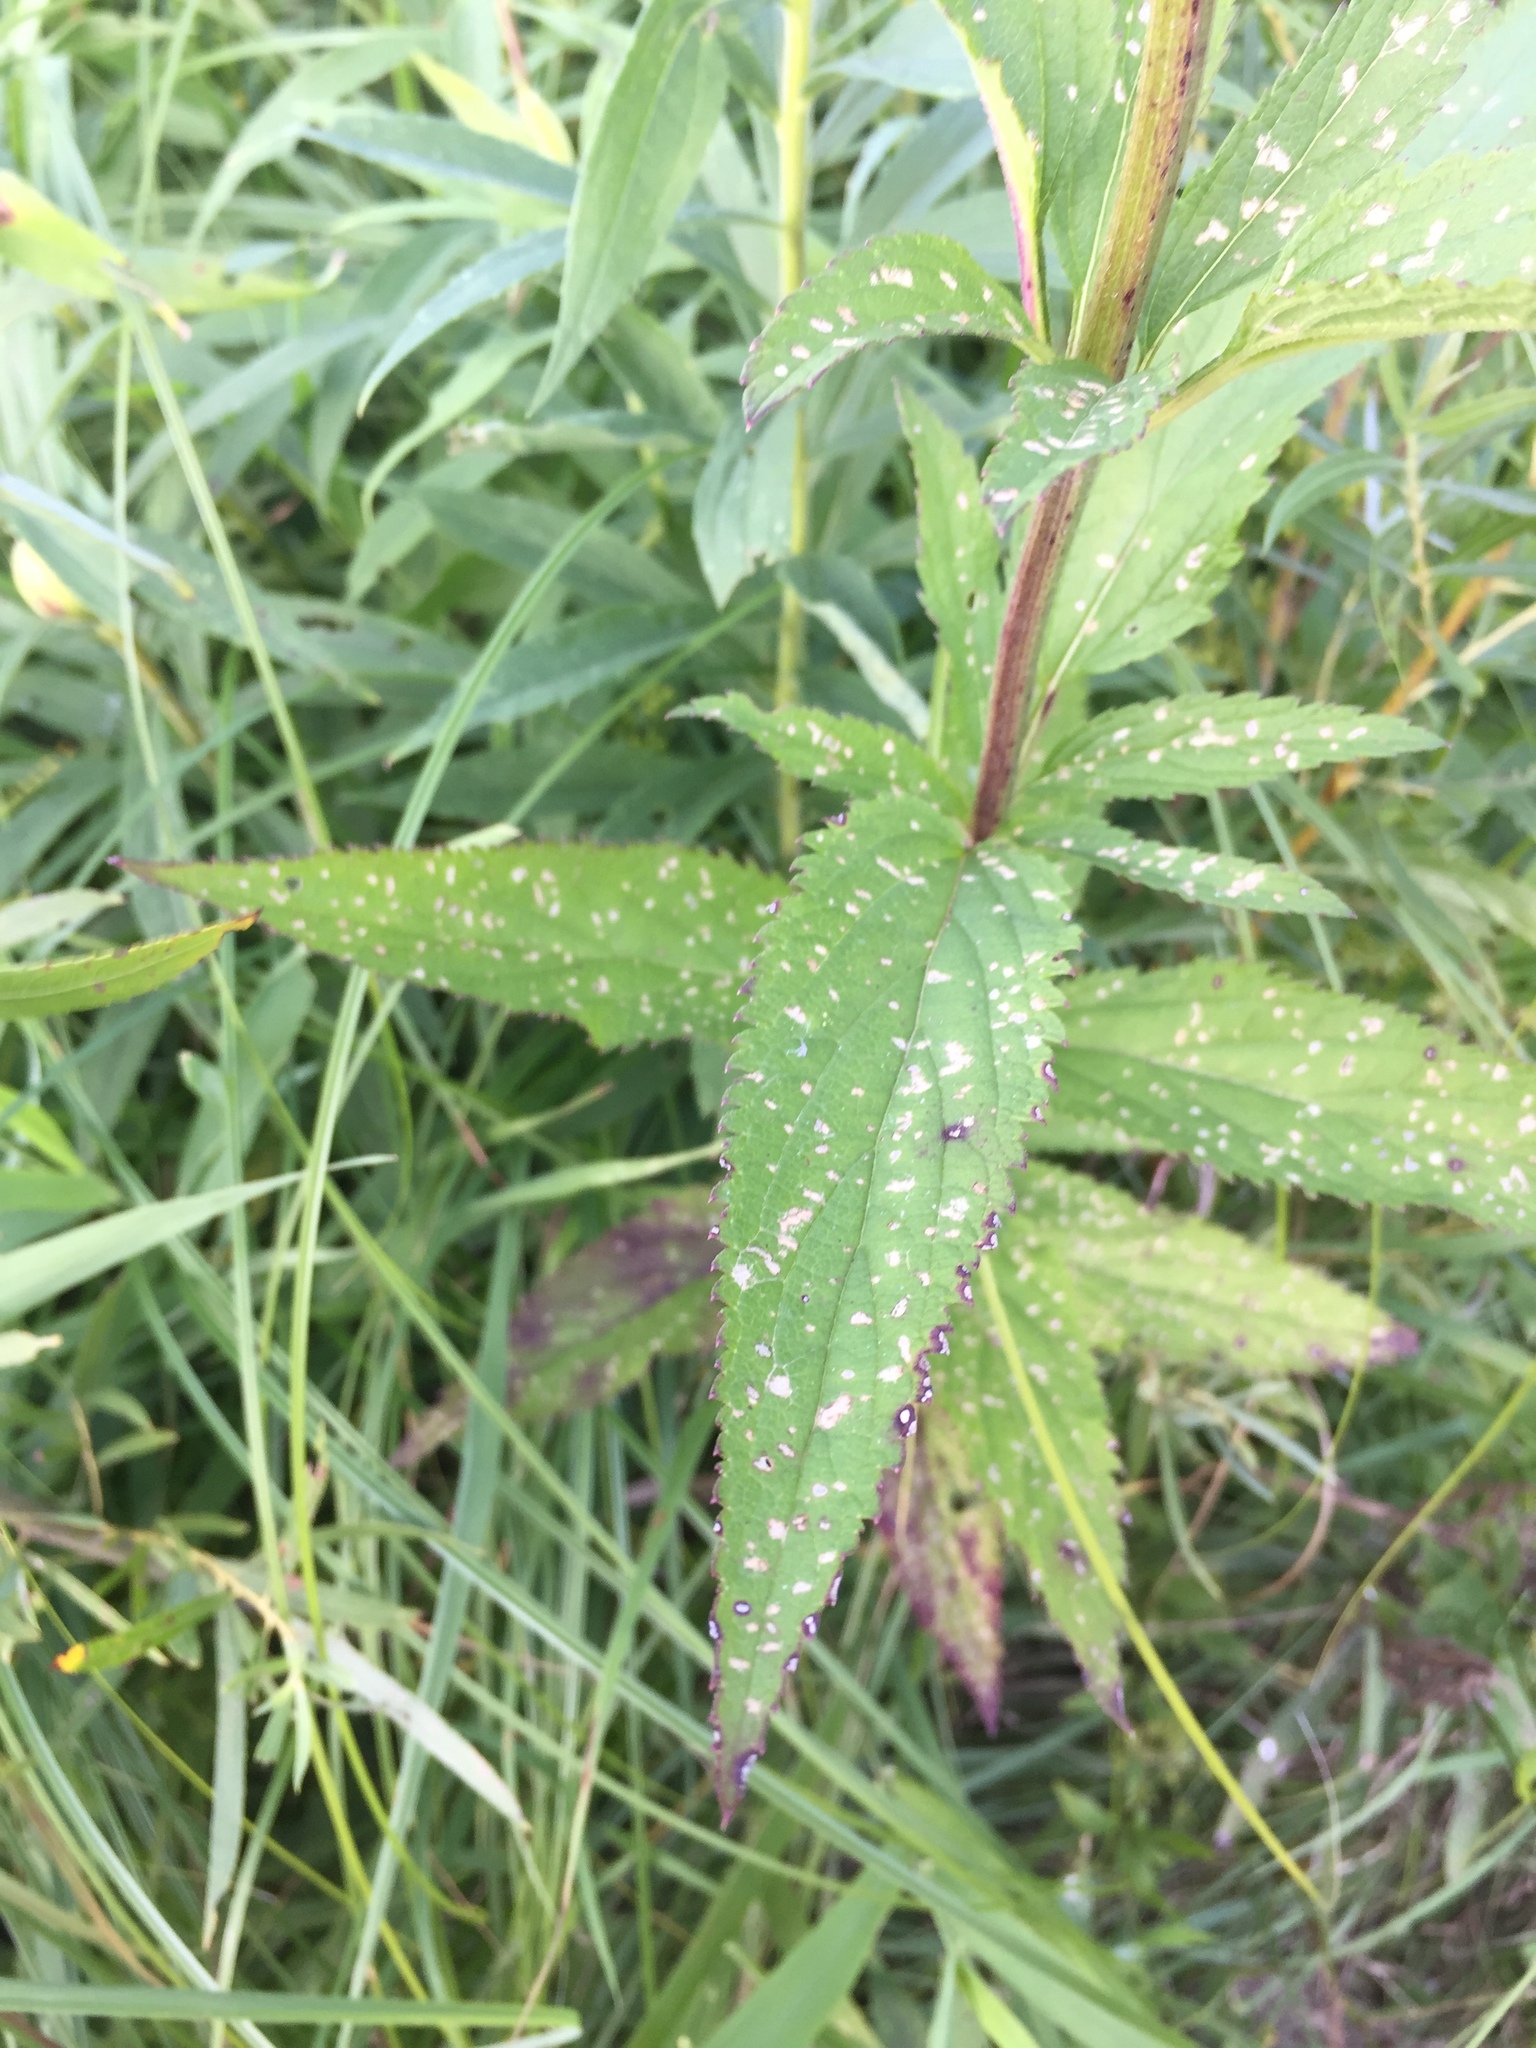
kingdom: Plantae
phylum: Tracheophyta
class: Magnoliopsida
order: Lamiales
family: Verbenaceae
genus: Verbena
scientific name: Verbena hastata
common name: American blue vervain
